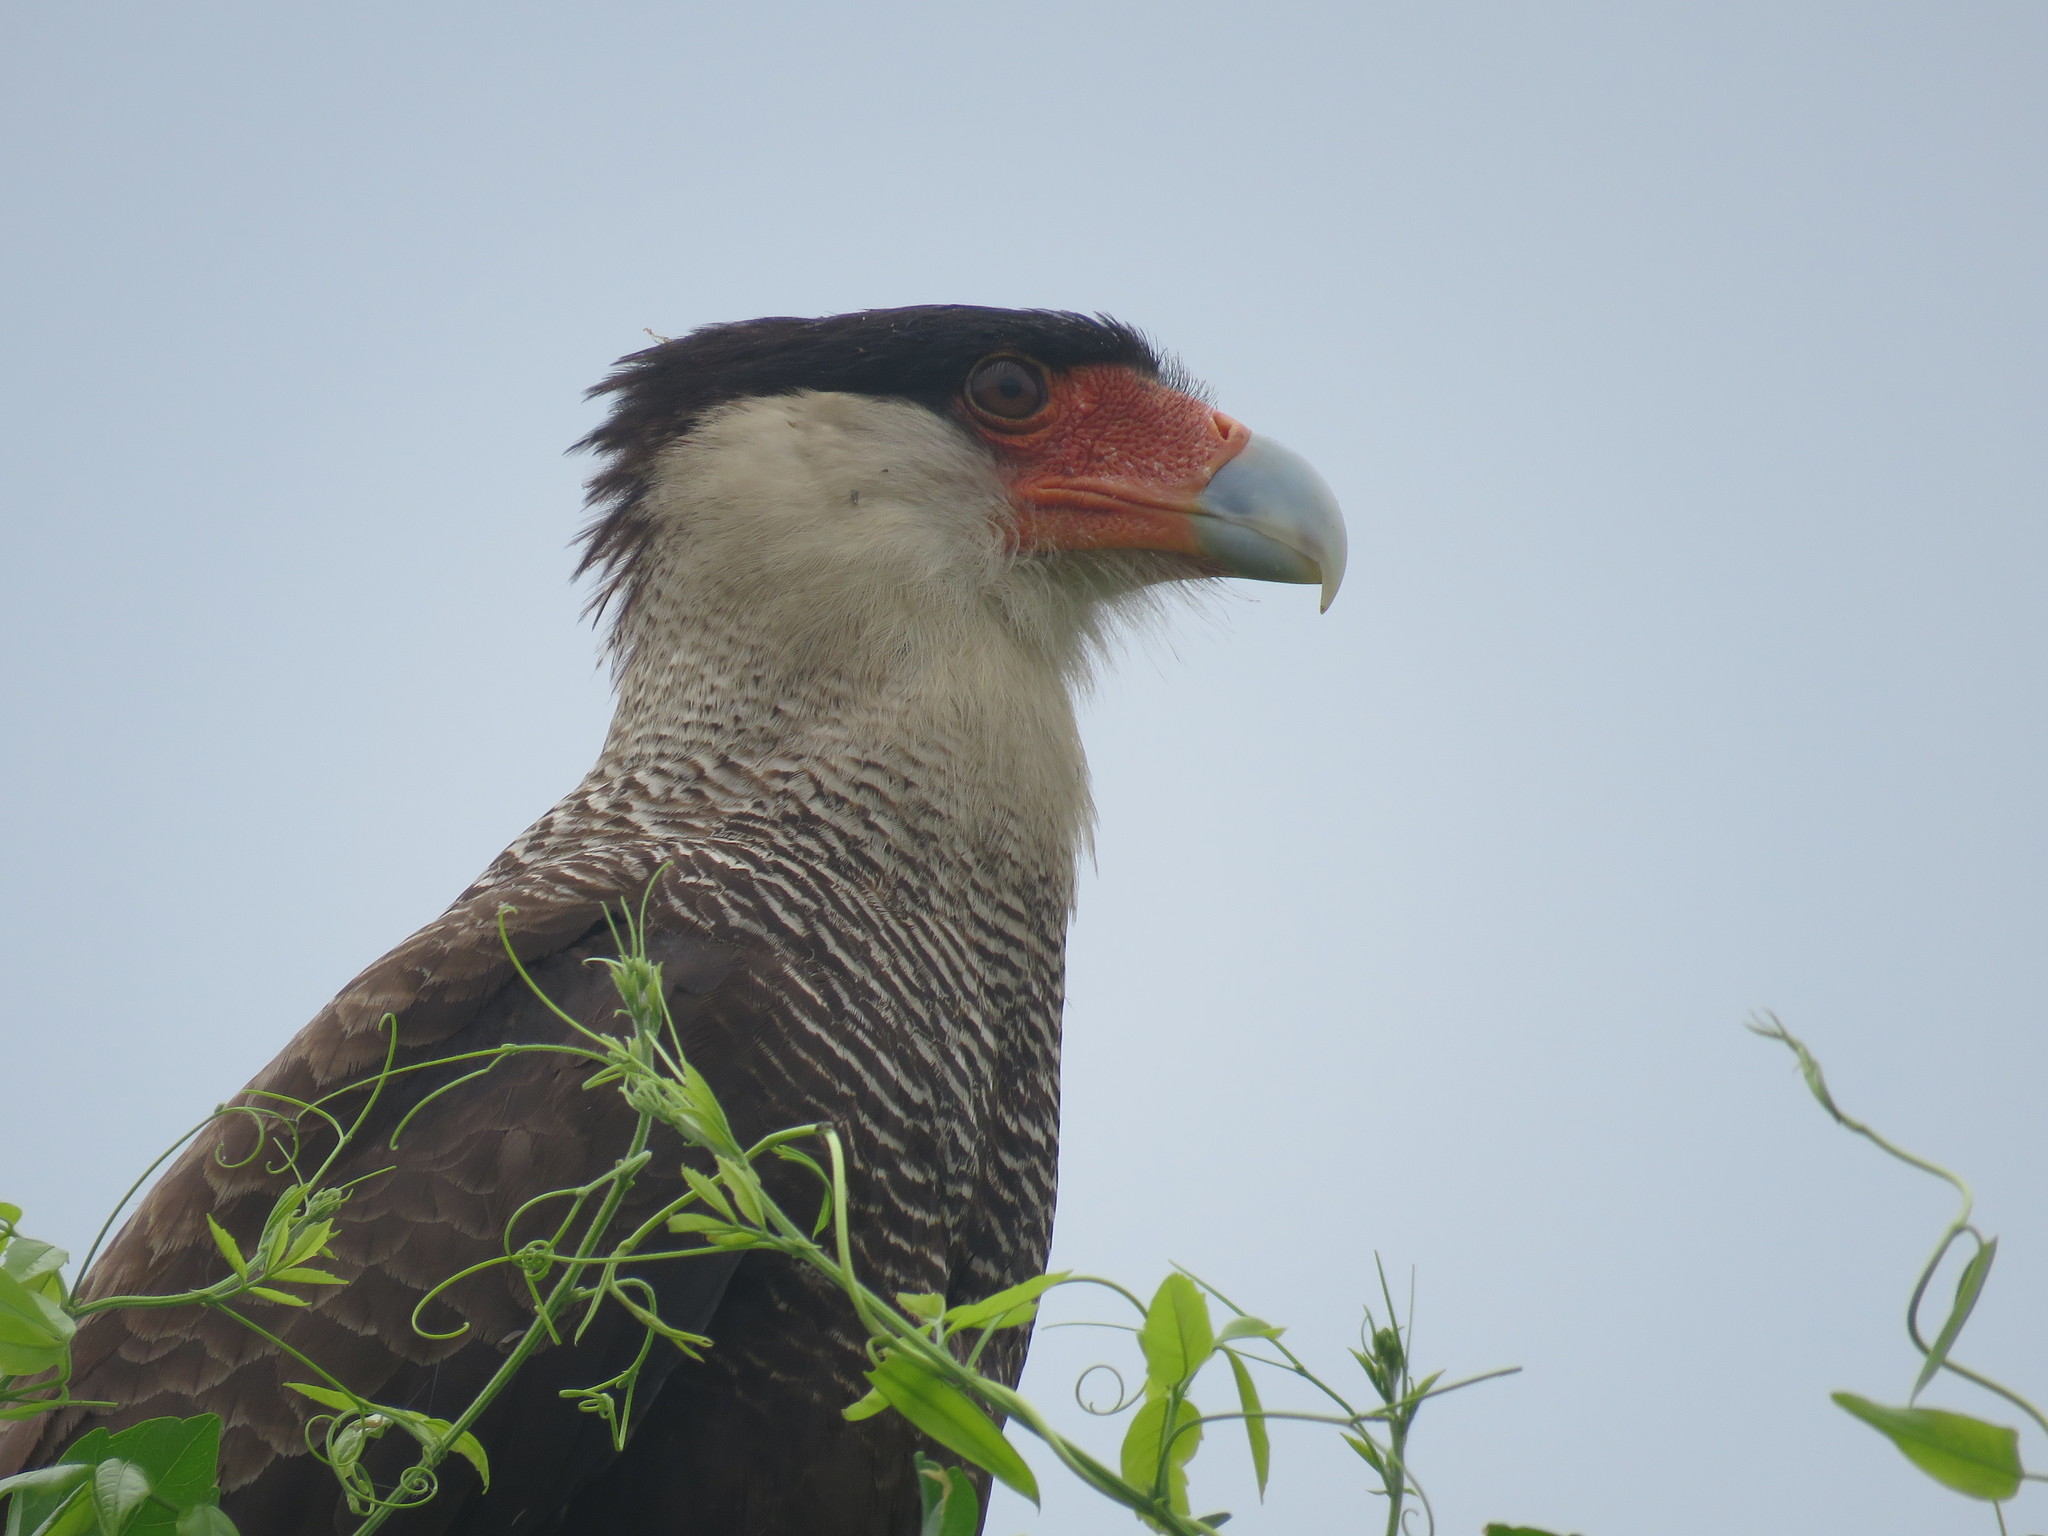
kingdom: Animalia
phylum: Chordata
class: Aves
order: Falconiformes
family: Falconidae
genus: Caracara
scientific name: Caracara plancus
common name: Southern caracara
